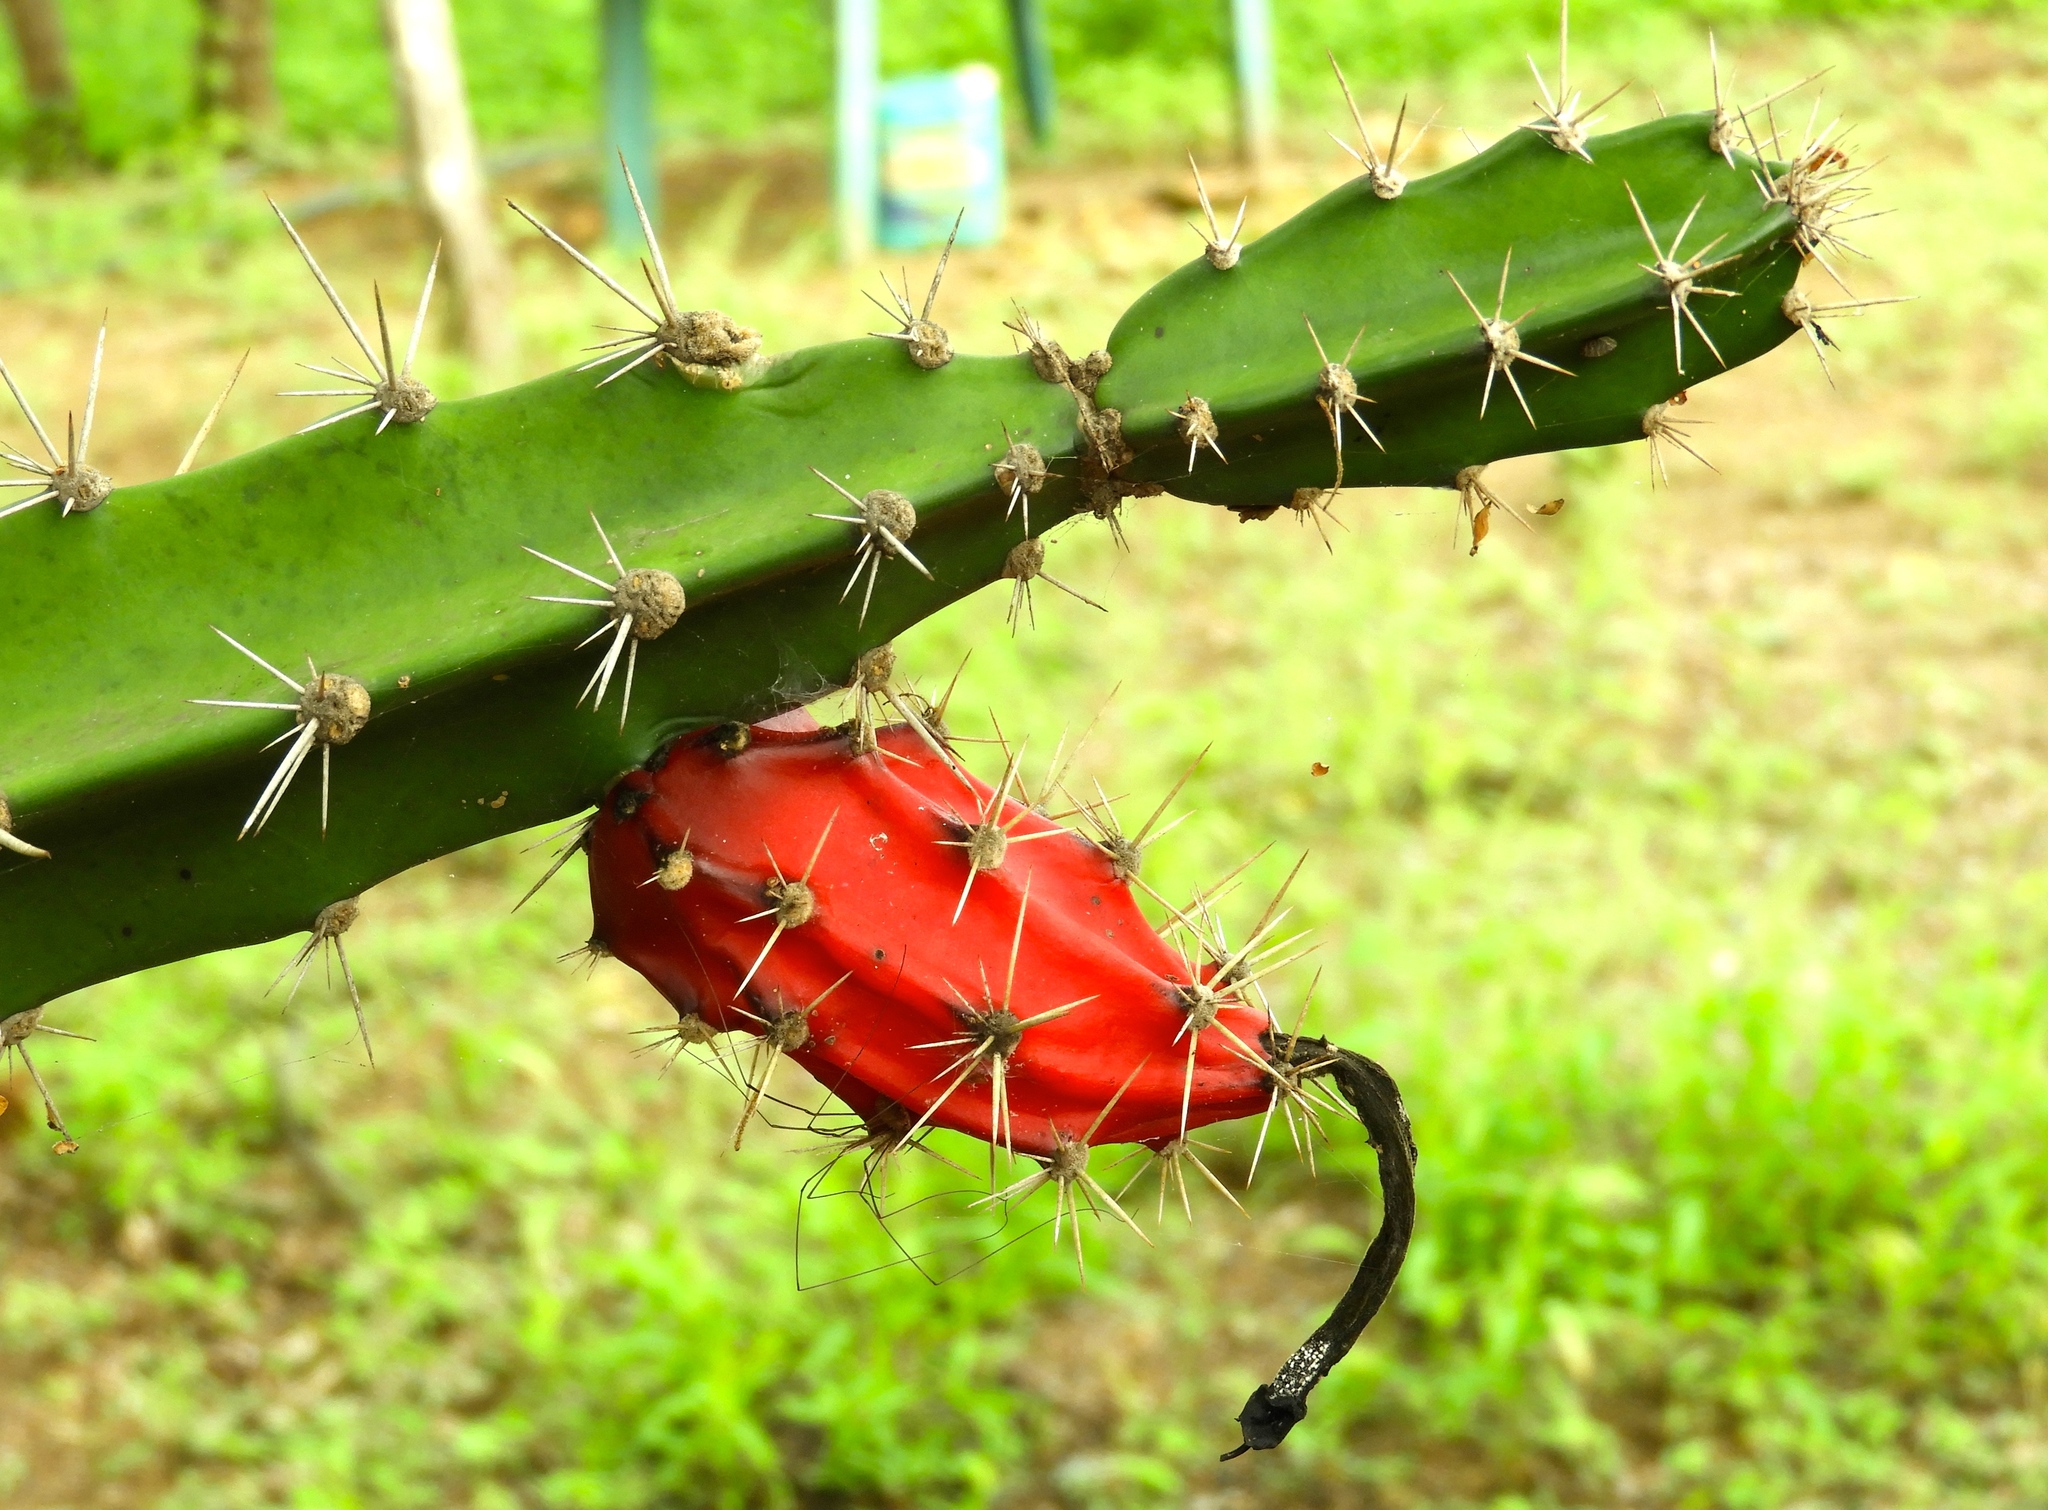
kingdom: Plantae
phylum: Tracheophyta
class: Magnoliopsida
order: Caryophyllales
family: Cactaceae
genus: Acanthocereus
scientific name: Acanthocereus tetragonus
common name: Triangle cactus
